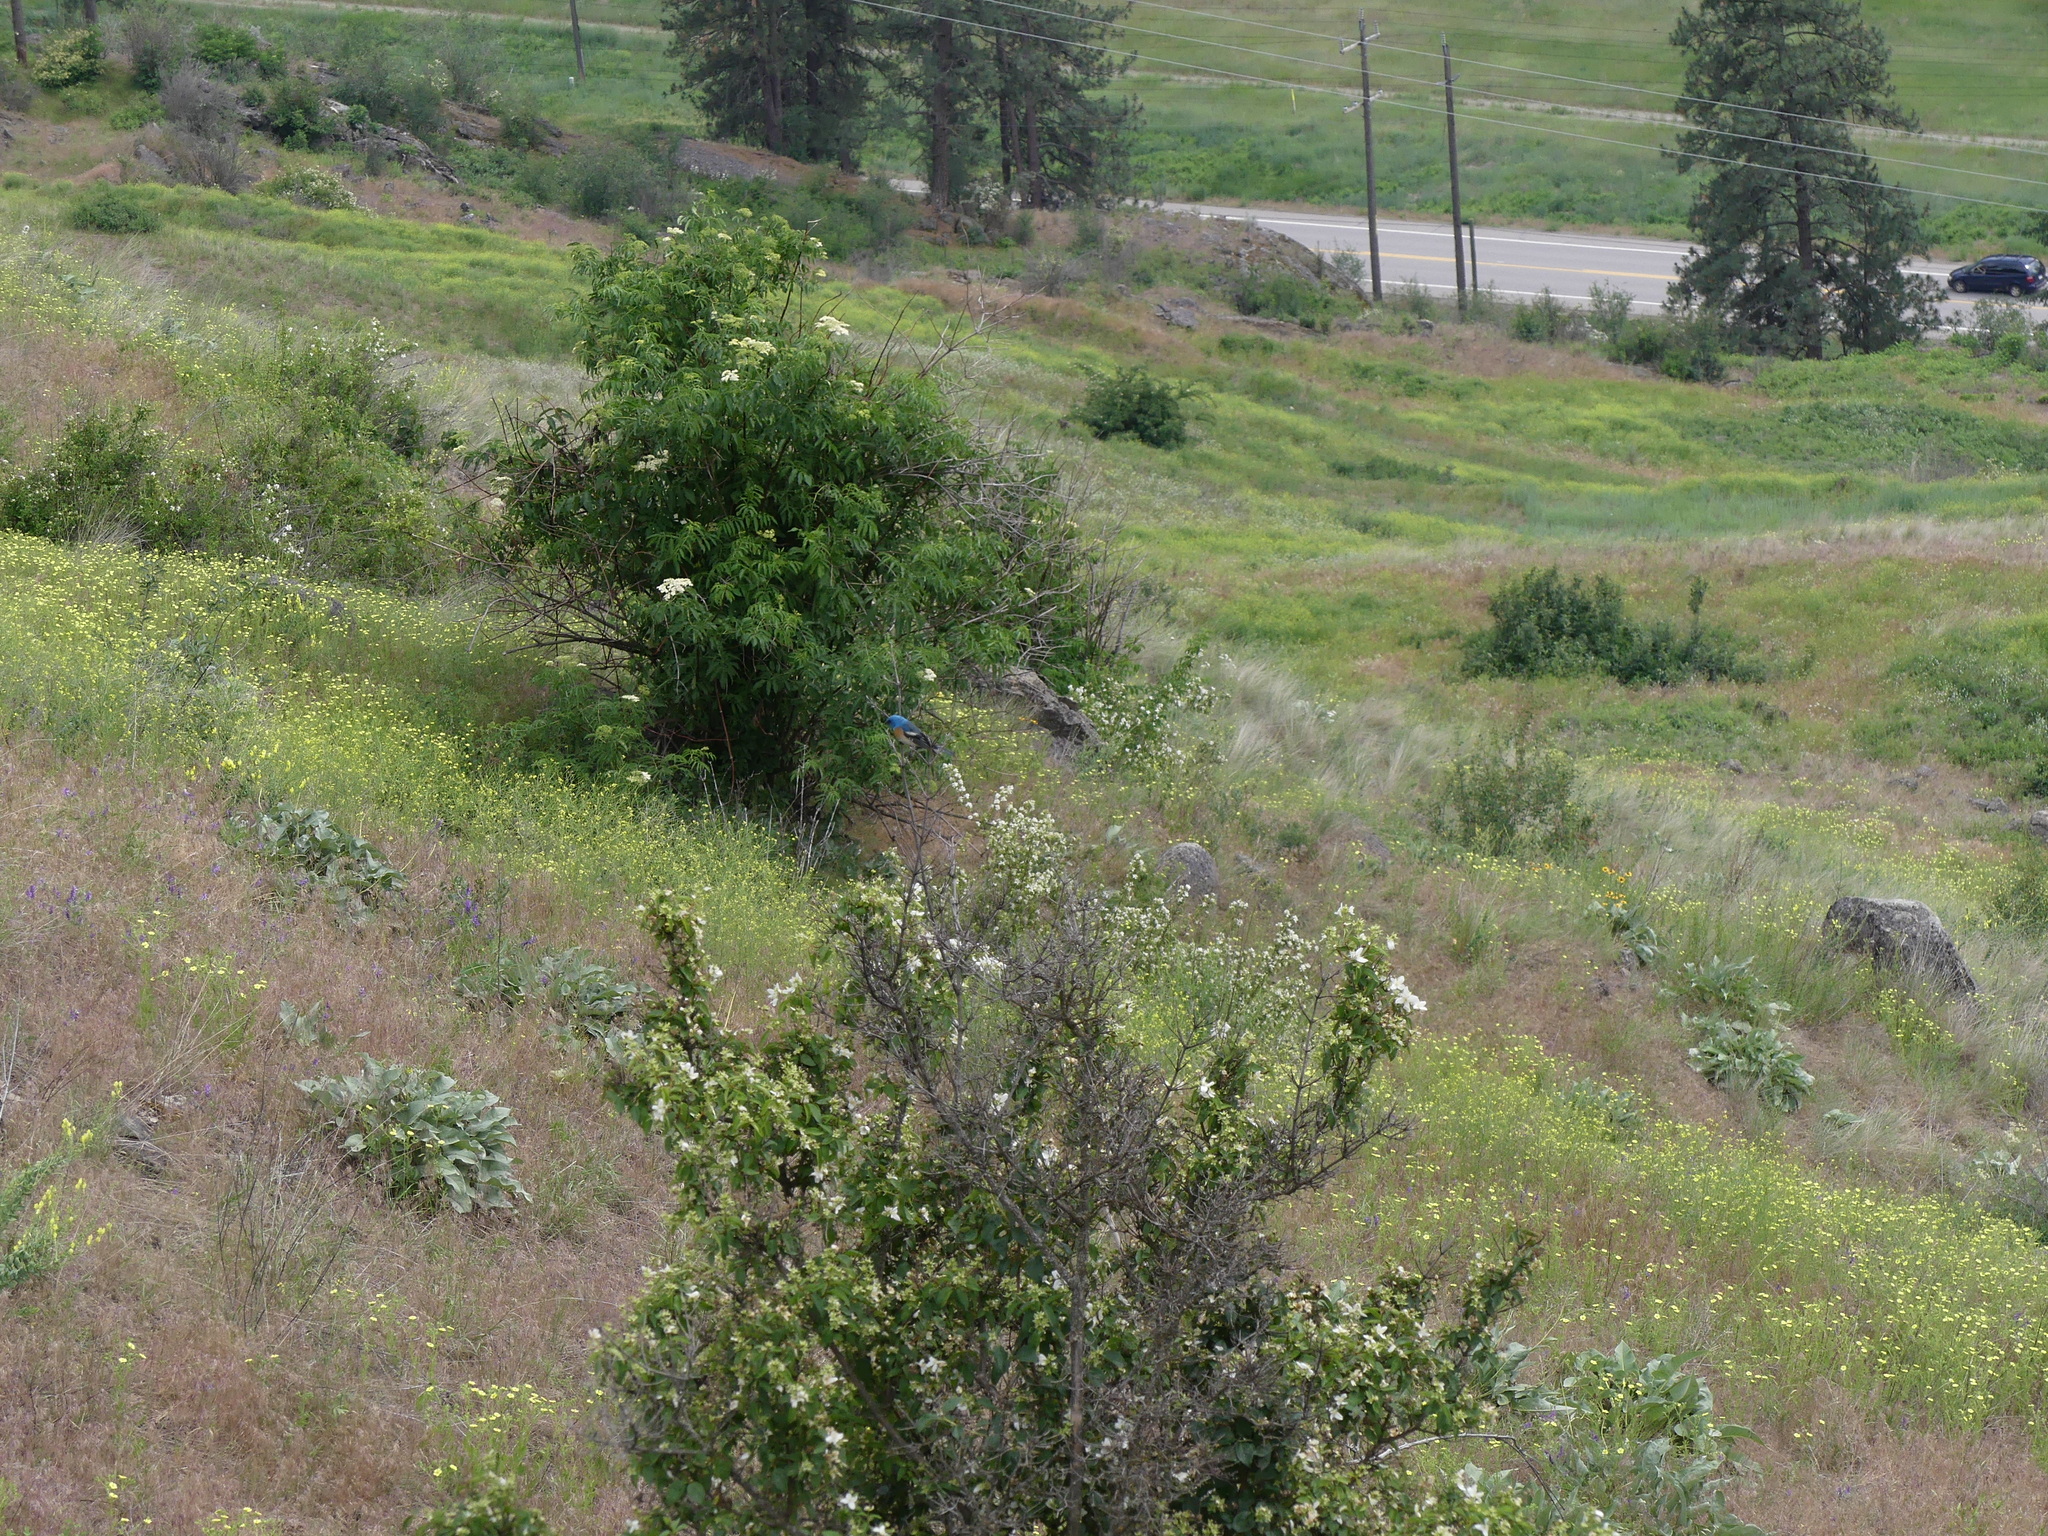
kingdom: Animalia
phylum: Chordata
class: Aves
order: Passeriformes
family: Cardinalidae
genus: Passerina
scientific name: Passerina amoena
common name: Lazuli bunting
